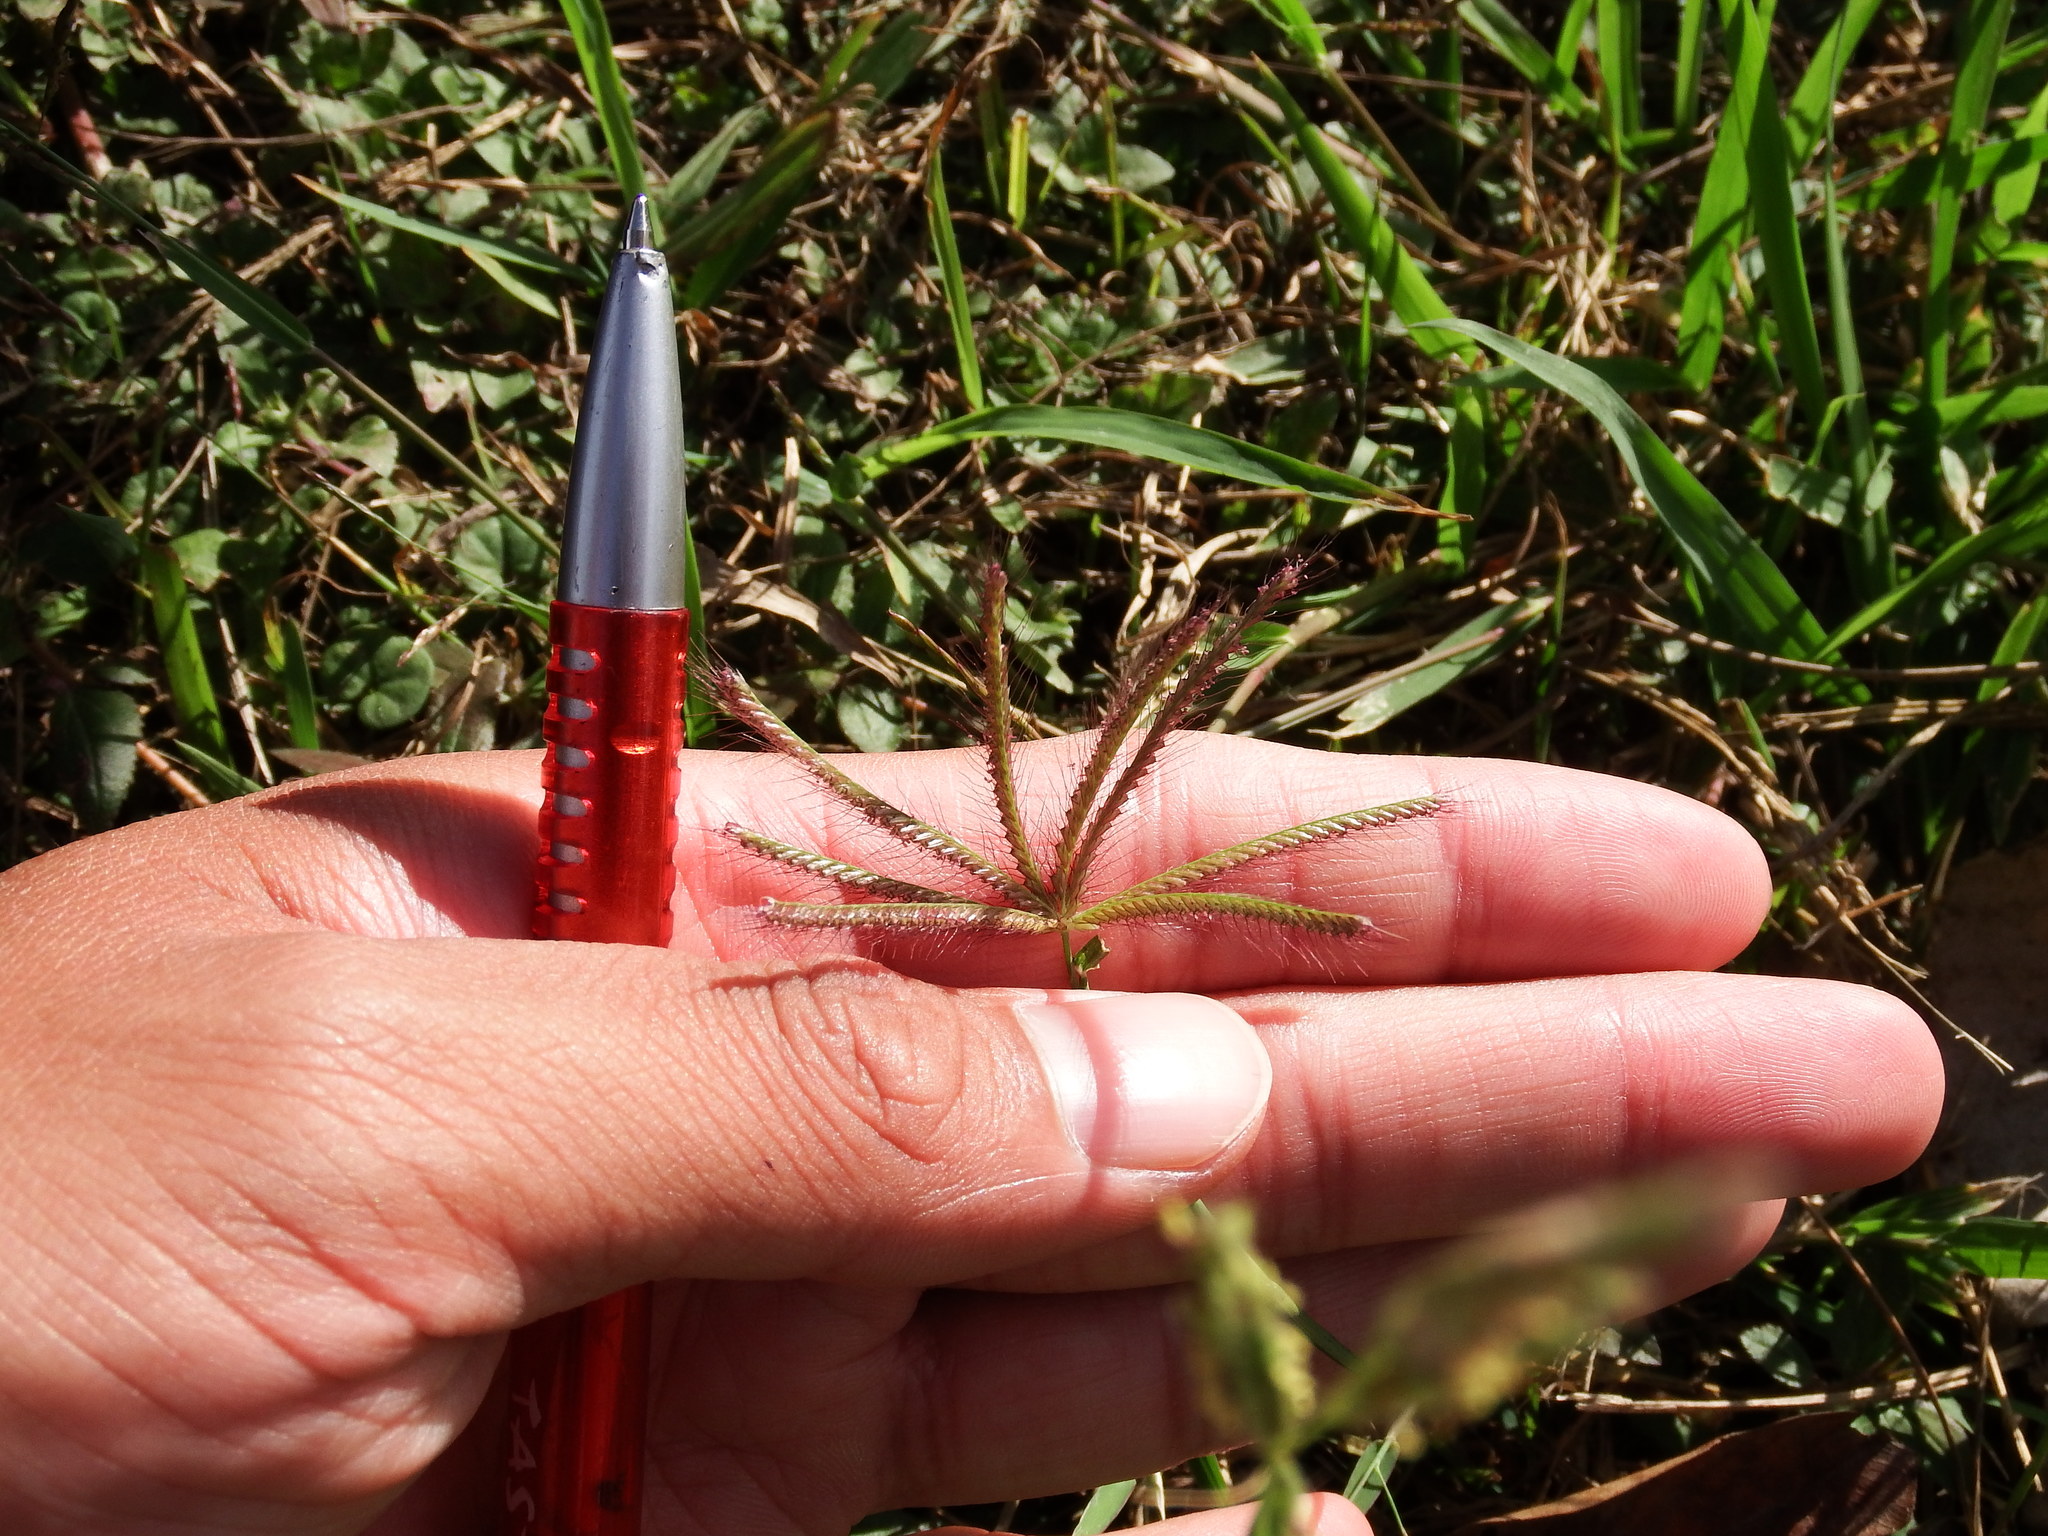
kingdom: Plantae
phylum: Tracheophyta
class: Liliopsida
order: Poales
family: Poaceae
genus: Chloris
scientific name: Chloris barbata
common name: Swollen fingergrass
